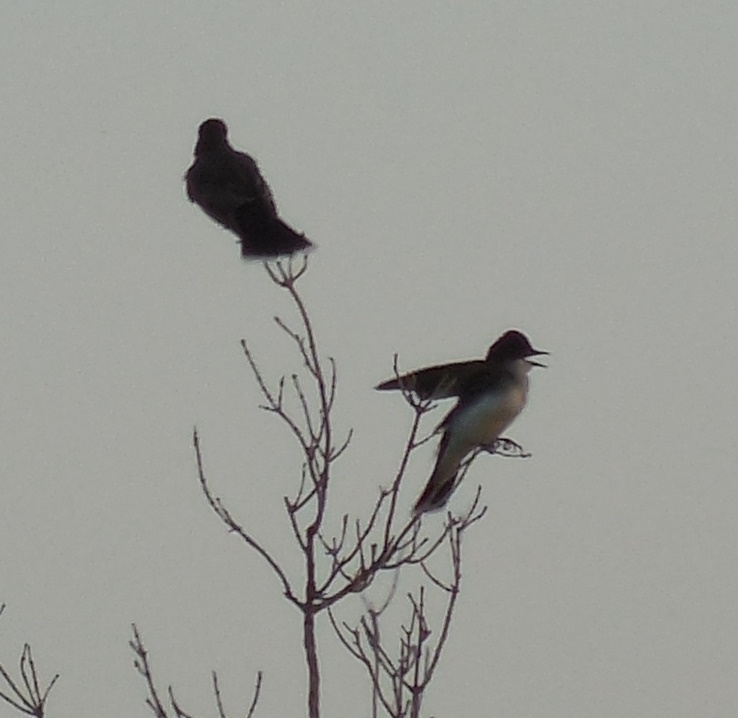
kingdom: Animalia
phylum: Chordata
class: Aves
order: Passeriformes
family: Tyrannidae
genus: Tyrannus
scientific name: Tyrannus tyrannus
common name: Eastern kingbird
